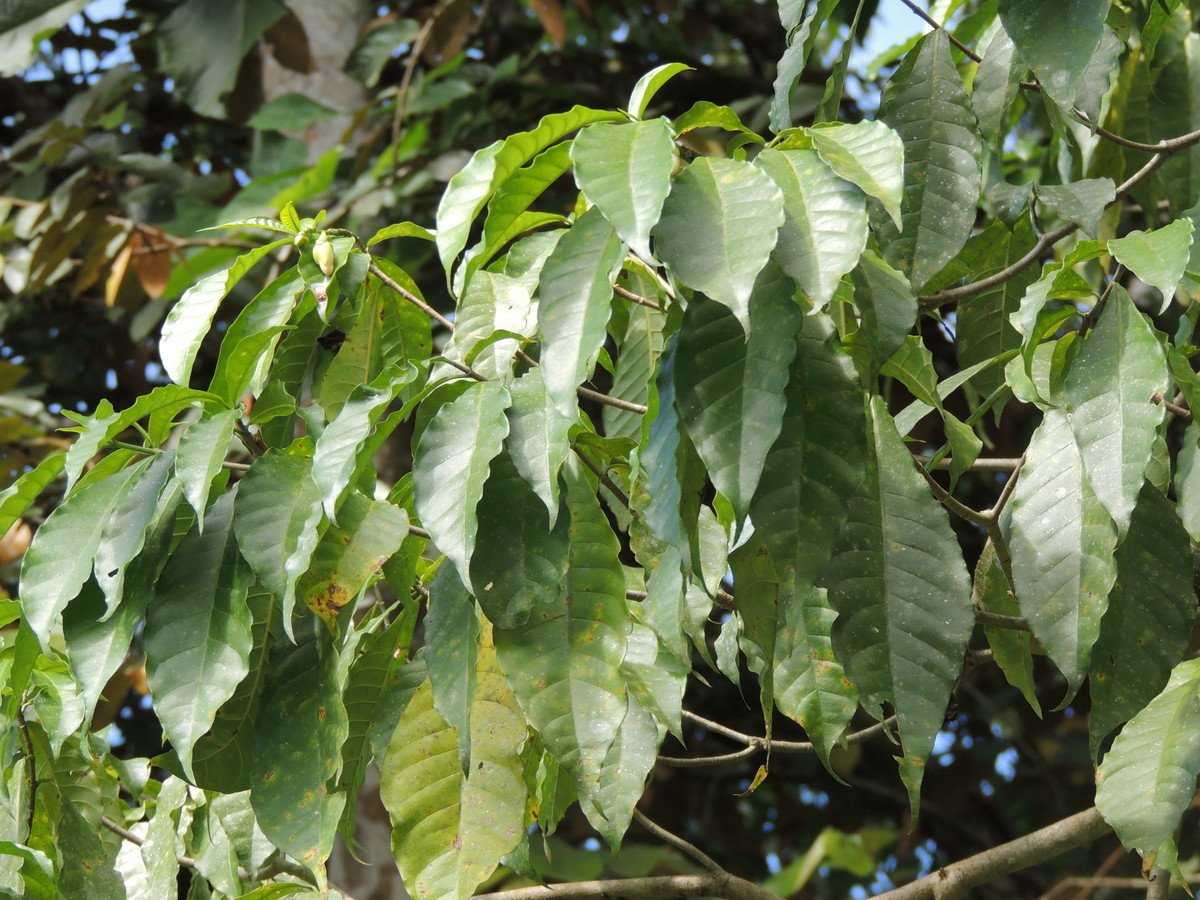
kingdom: Plantae
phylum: Tracheophyta
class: Magnoliopsida
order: Gentianales
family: Apocynaceae
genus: Tabernaemontana
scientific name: Tabernaemontana donnell-smithii
